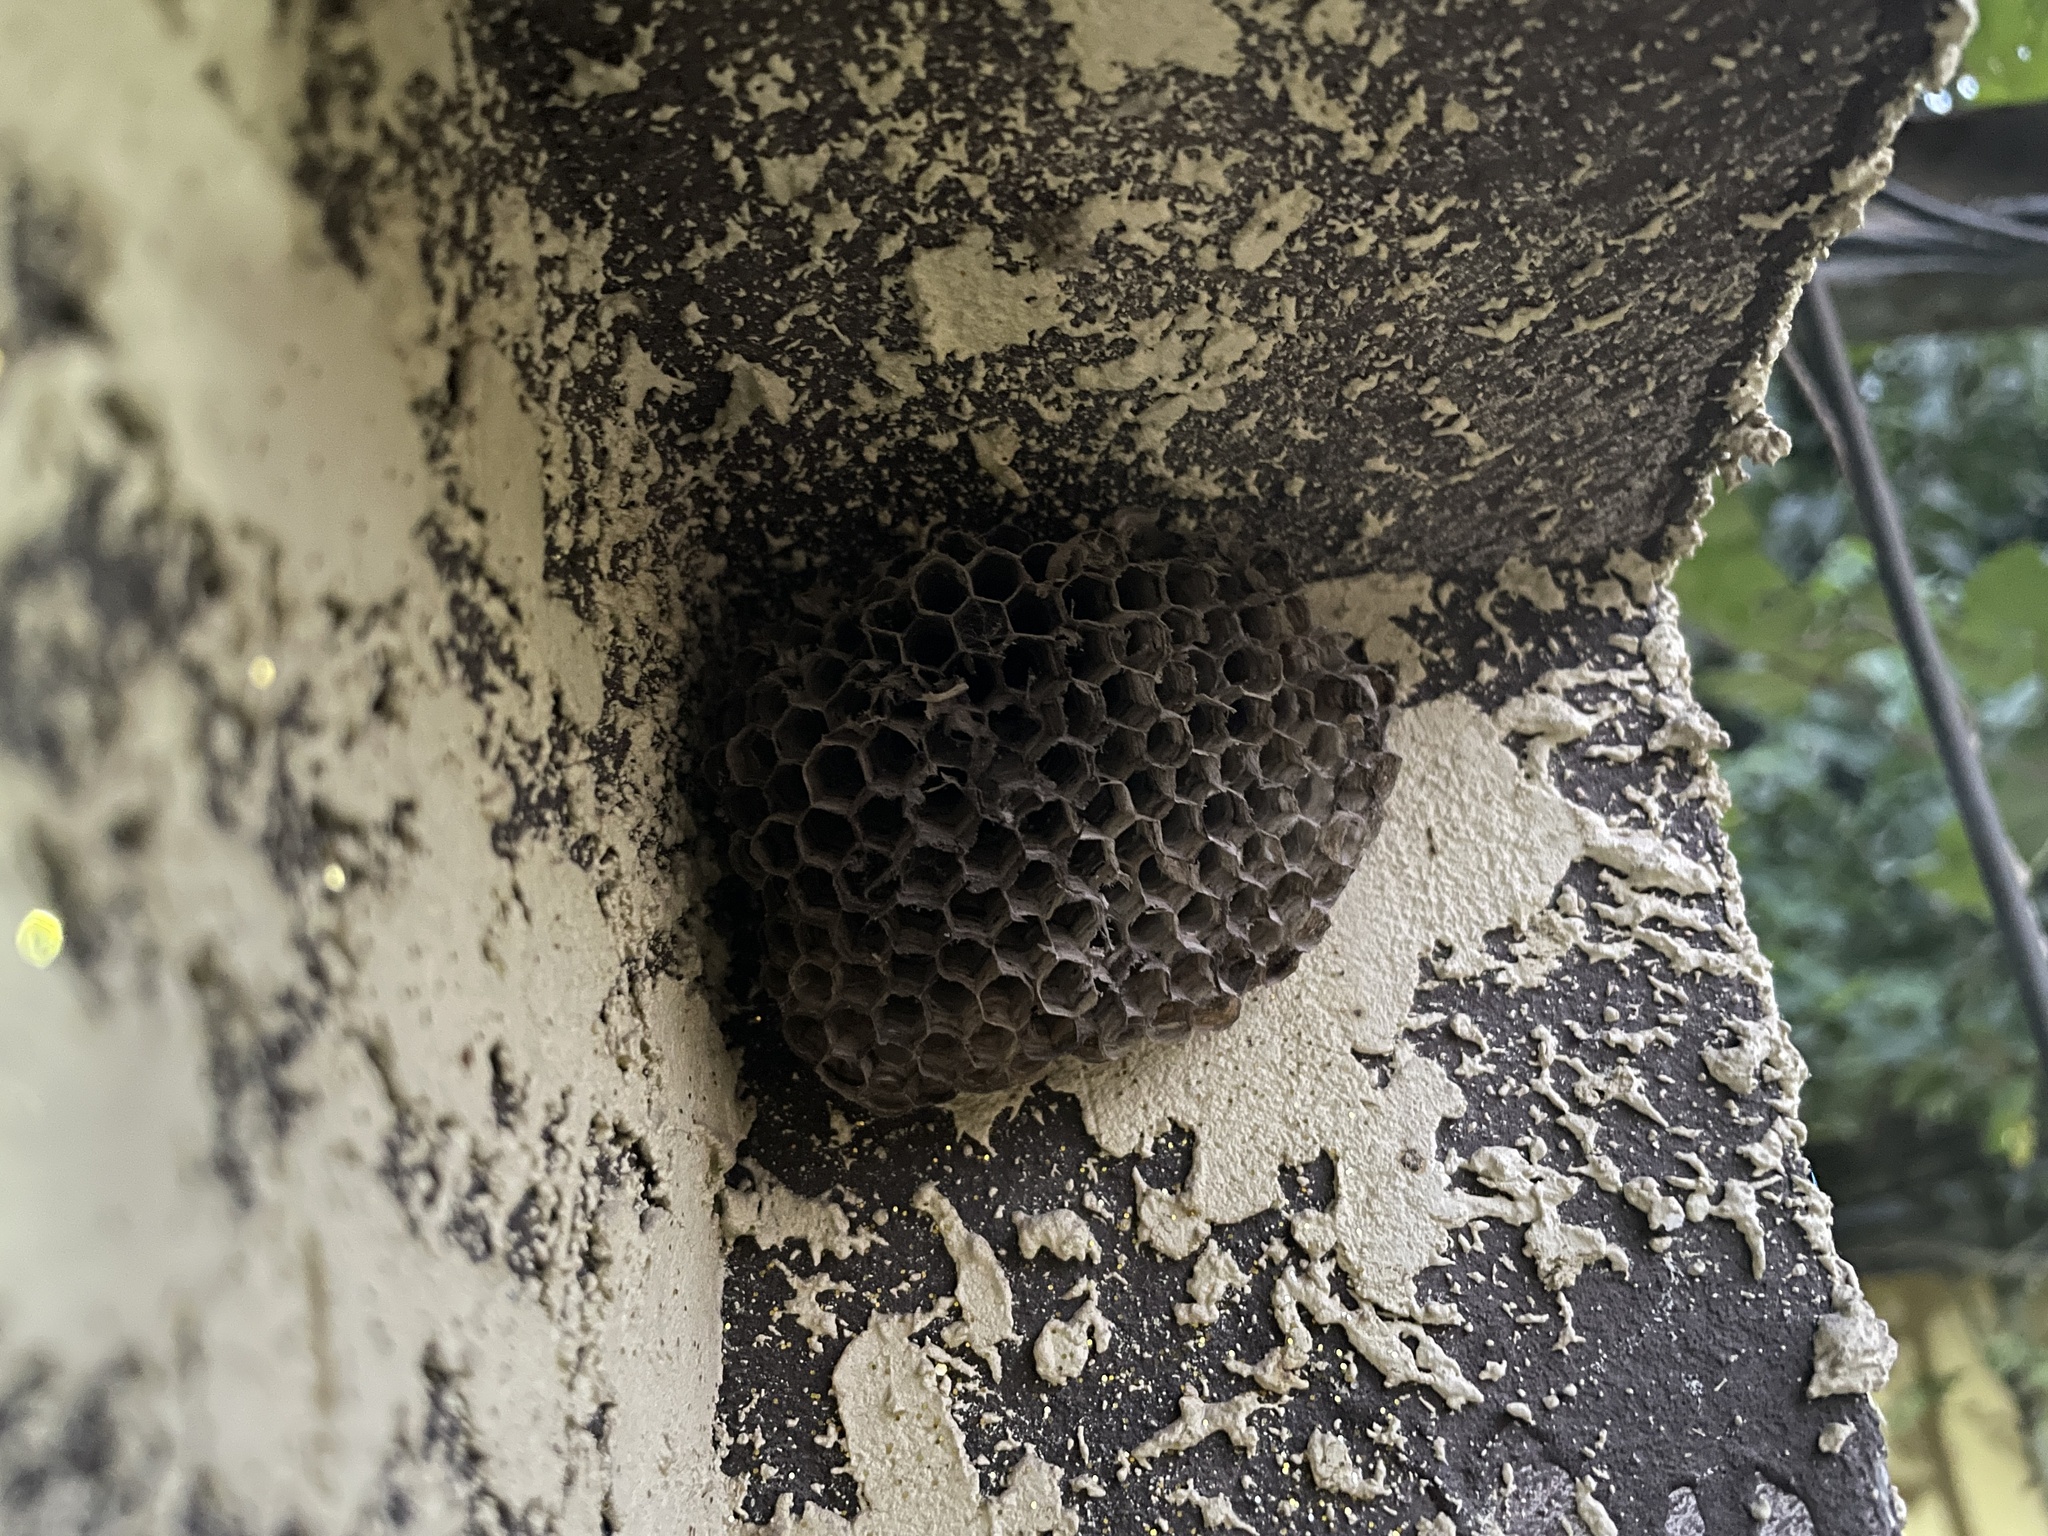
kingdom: Animalia
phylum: Arthropoda
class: Insecta
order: Hymenoptera
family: Eumenidae
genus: Polistes
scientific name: Polistes
